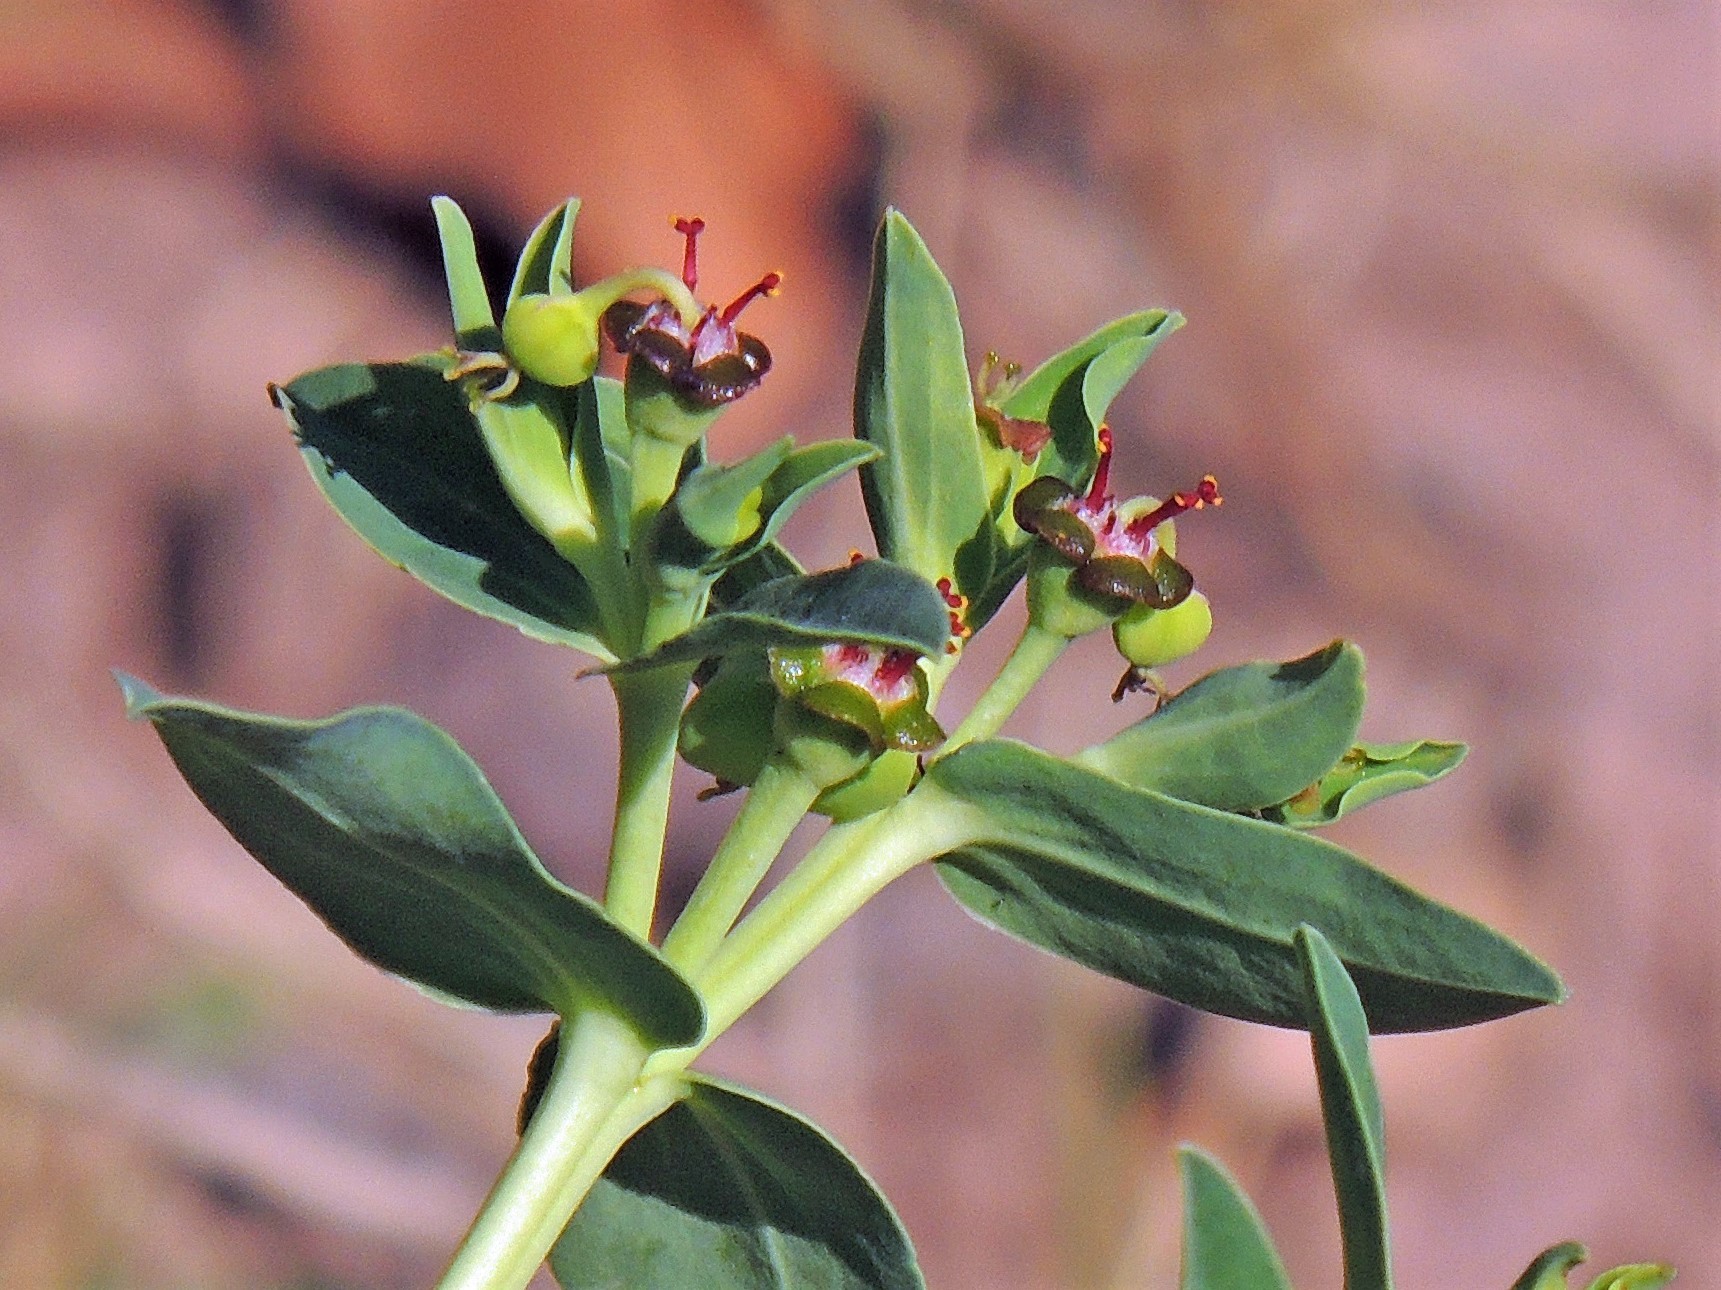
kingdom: Plantae
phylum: Tracheophyta
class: Magnoliopsida
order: Malpighiales
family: Euphorbiaceae
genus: Euphorbia
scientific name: Euphorbia portulacoides
